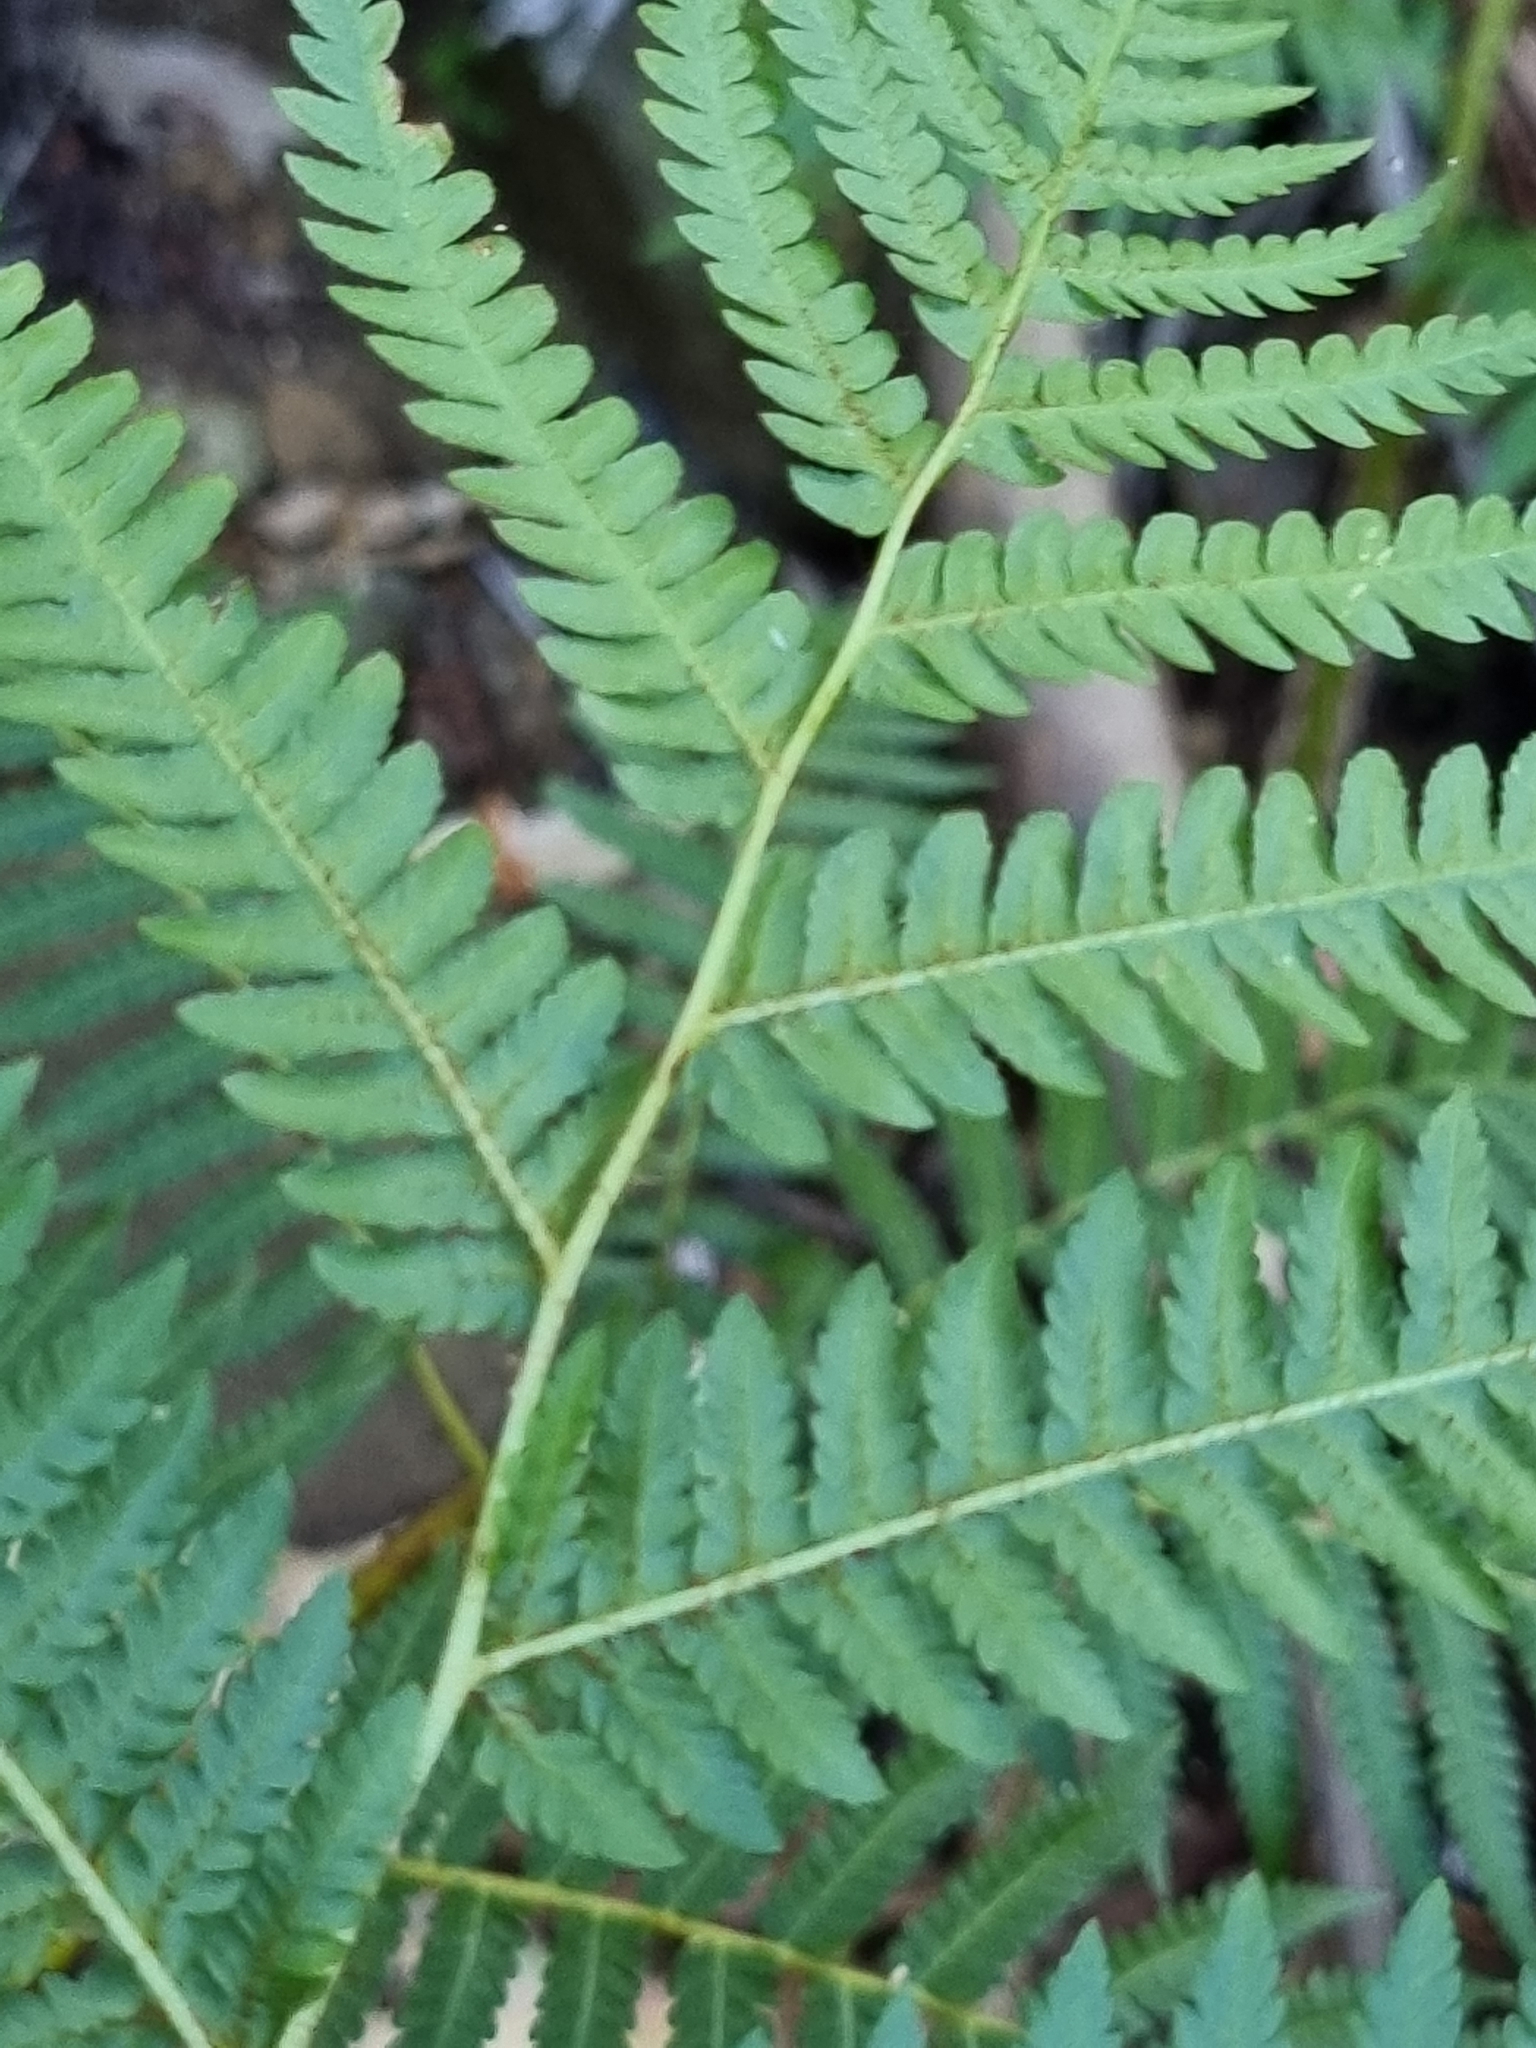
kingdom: Plantae
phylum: Tracheophyta
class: Polypodiopsida
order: Cyatheales
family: Dicksoniaceae
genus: Calochlaena
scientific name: Calochlaena dubia
